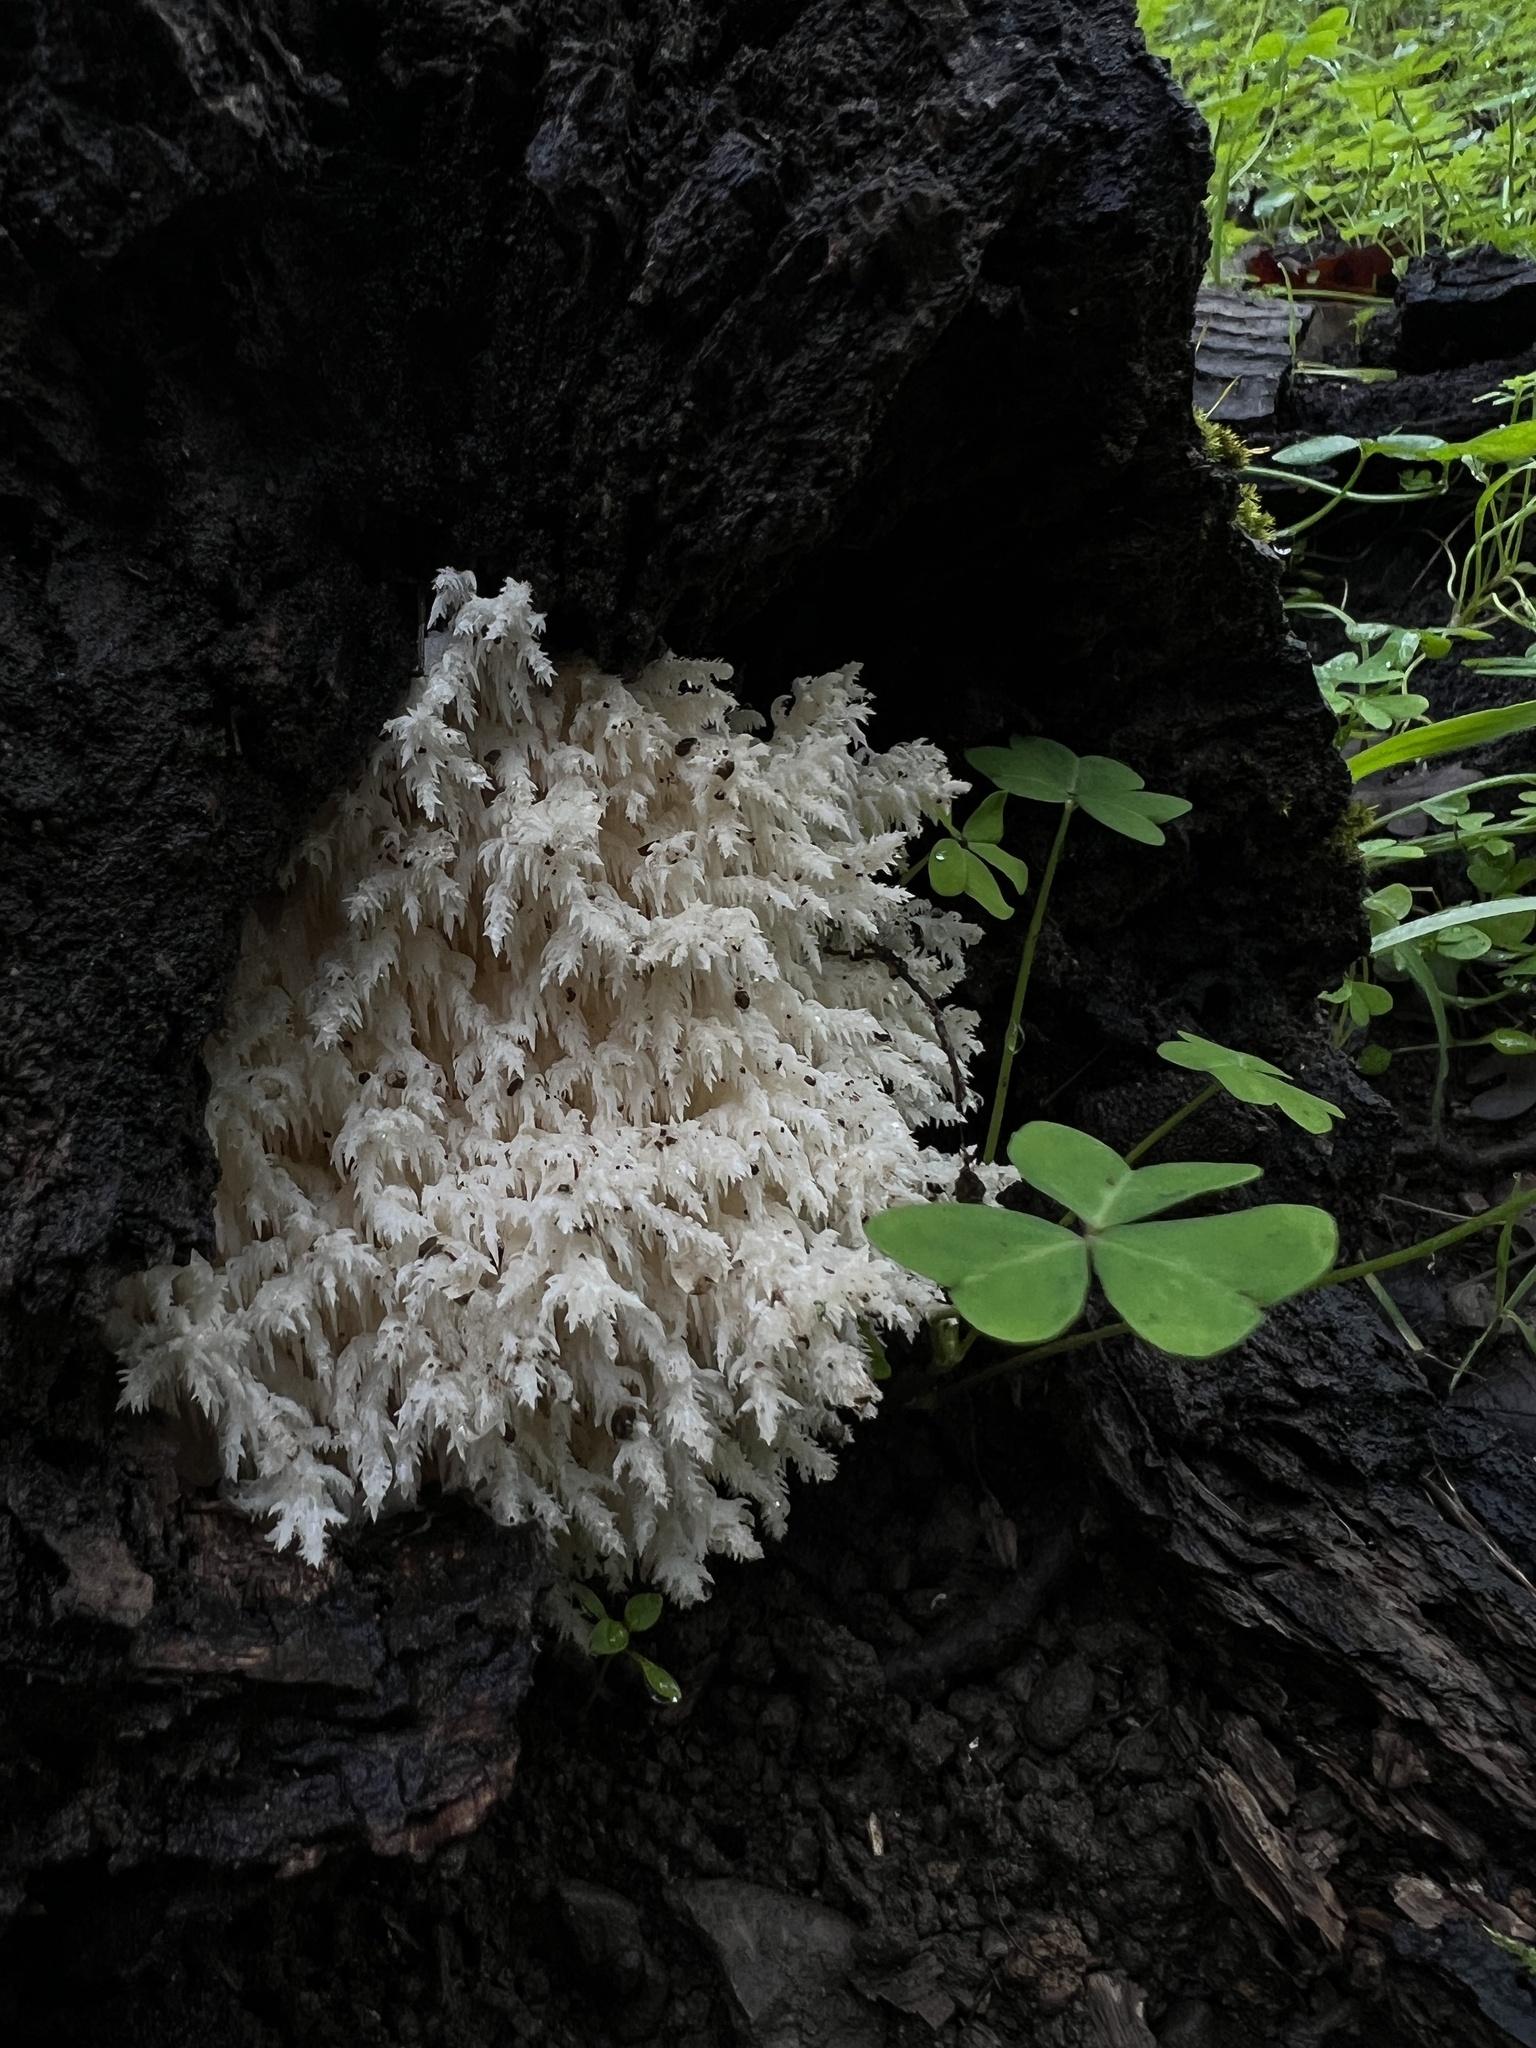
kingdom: Fungi
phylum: Basidiomycota
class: Agaricomycetes
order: Russulales
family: Hericiaceae
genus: Hericium
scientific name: Hericium coralloides
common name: Coral tooth
